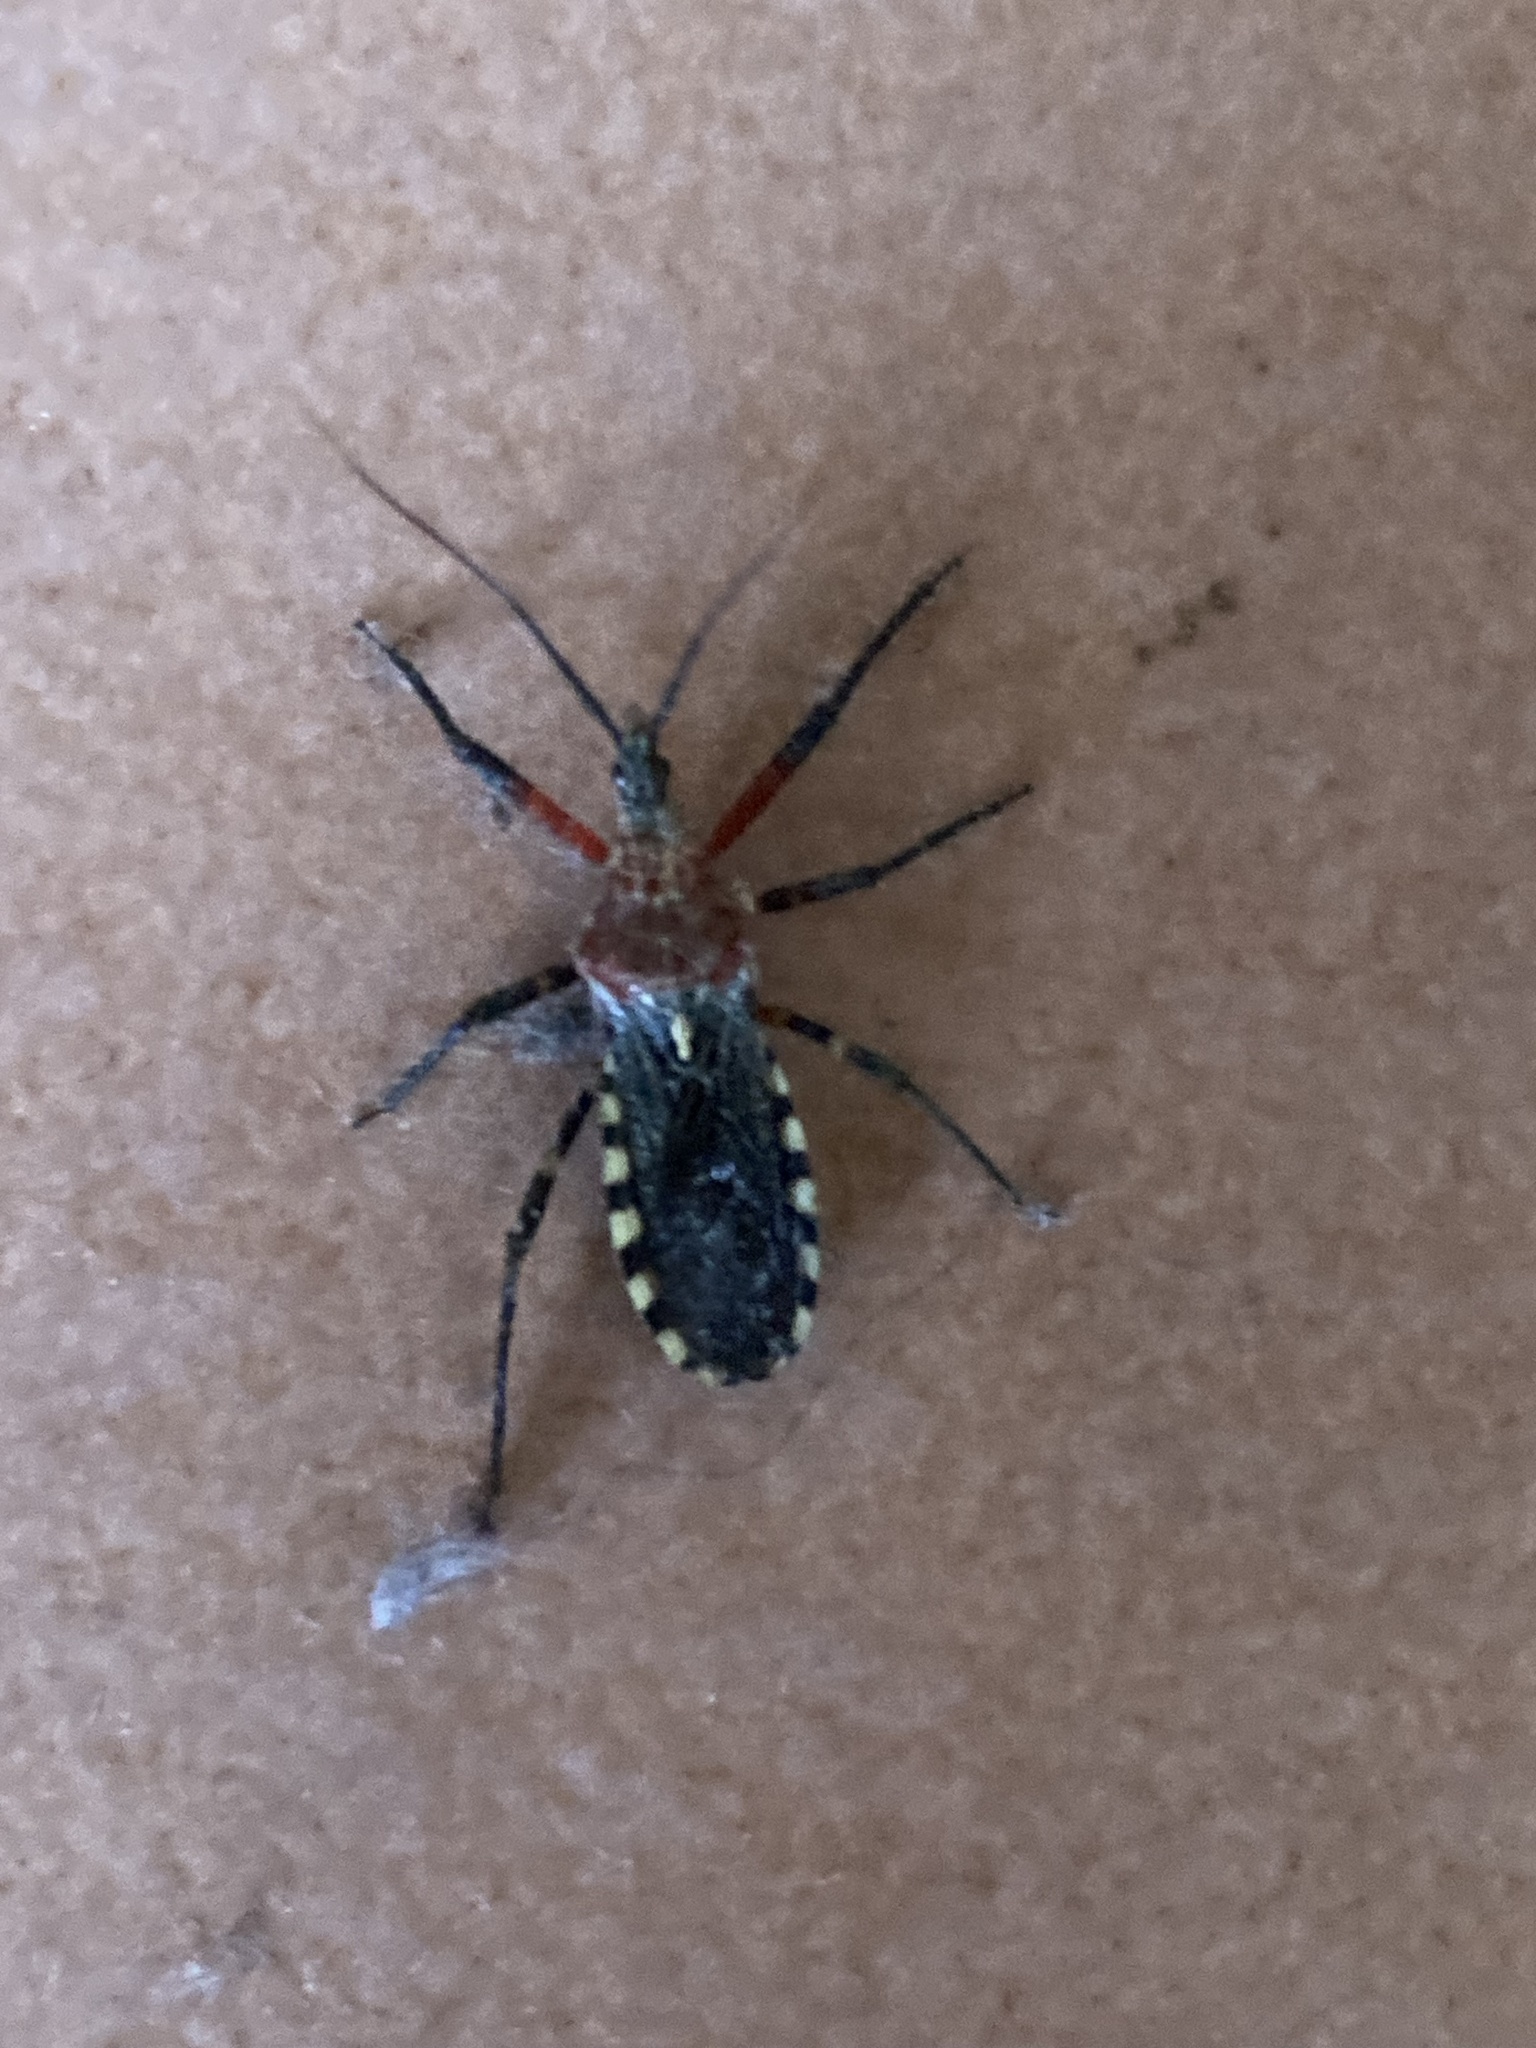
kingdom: Animalia
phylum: Arthropoda
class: Insecta
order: Hemiptera
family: Reduviidae
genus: Cosmoclopius
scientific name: Cosmoclopius poecilus
